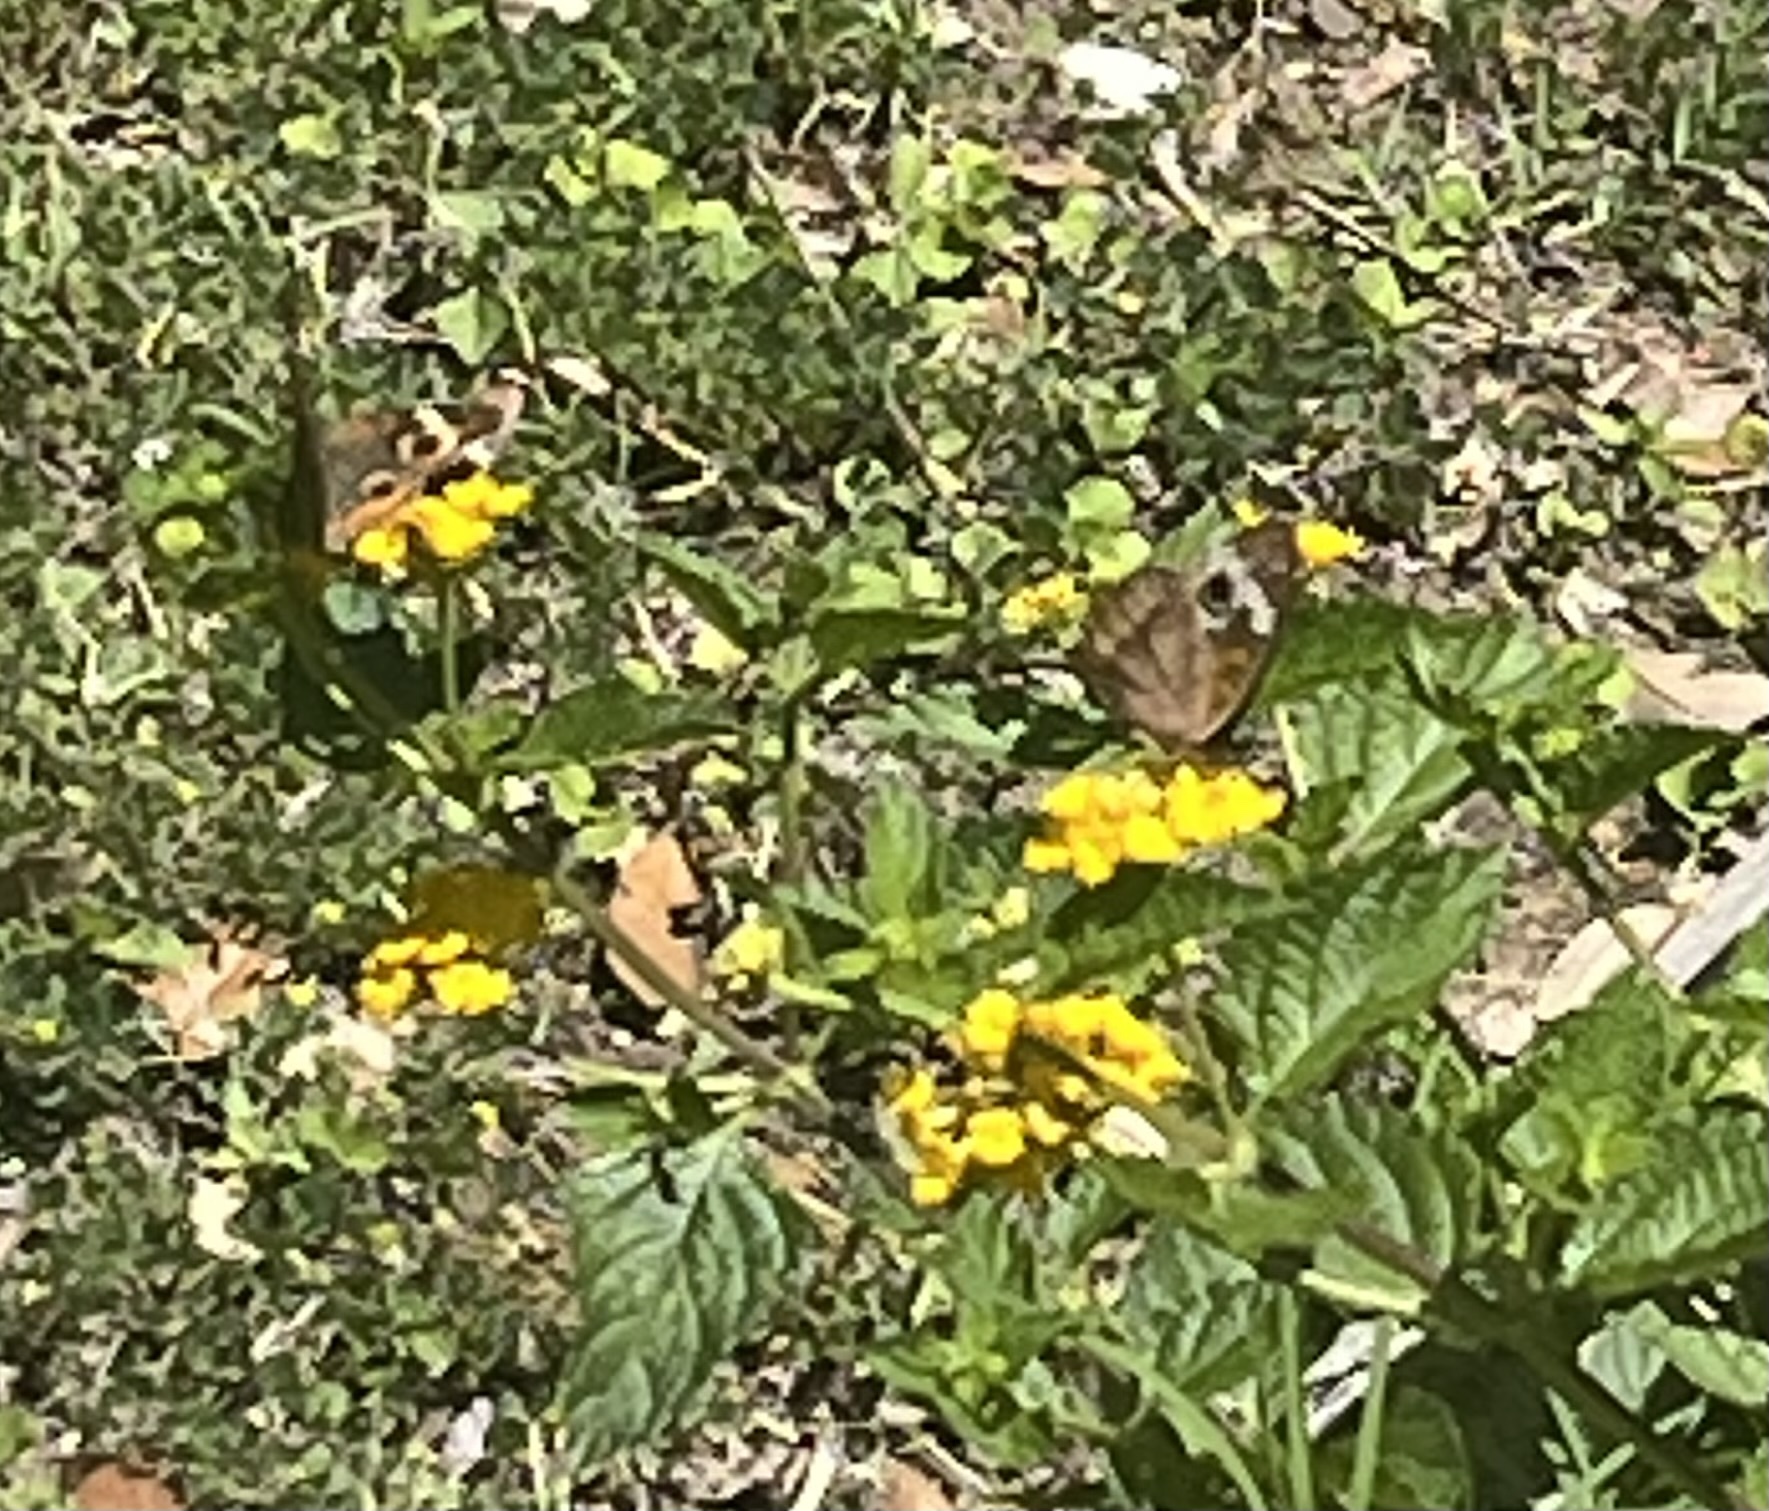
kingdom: Animalia
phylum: Arthropoda
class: Insecta
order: Lepidoptera
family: Nymphalidae
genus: Junonia
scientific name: Junonia coenia
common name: Common buckeye
